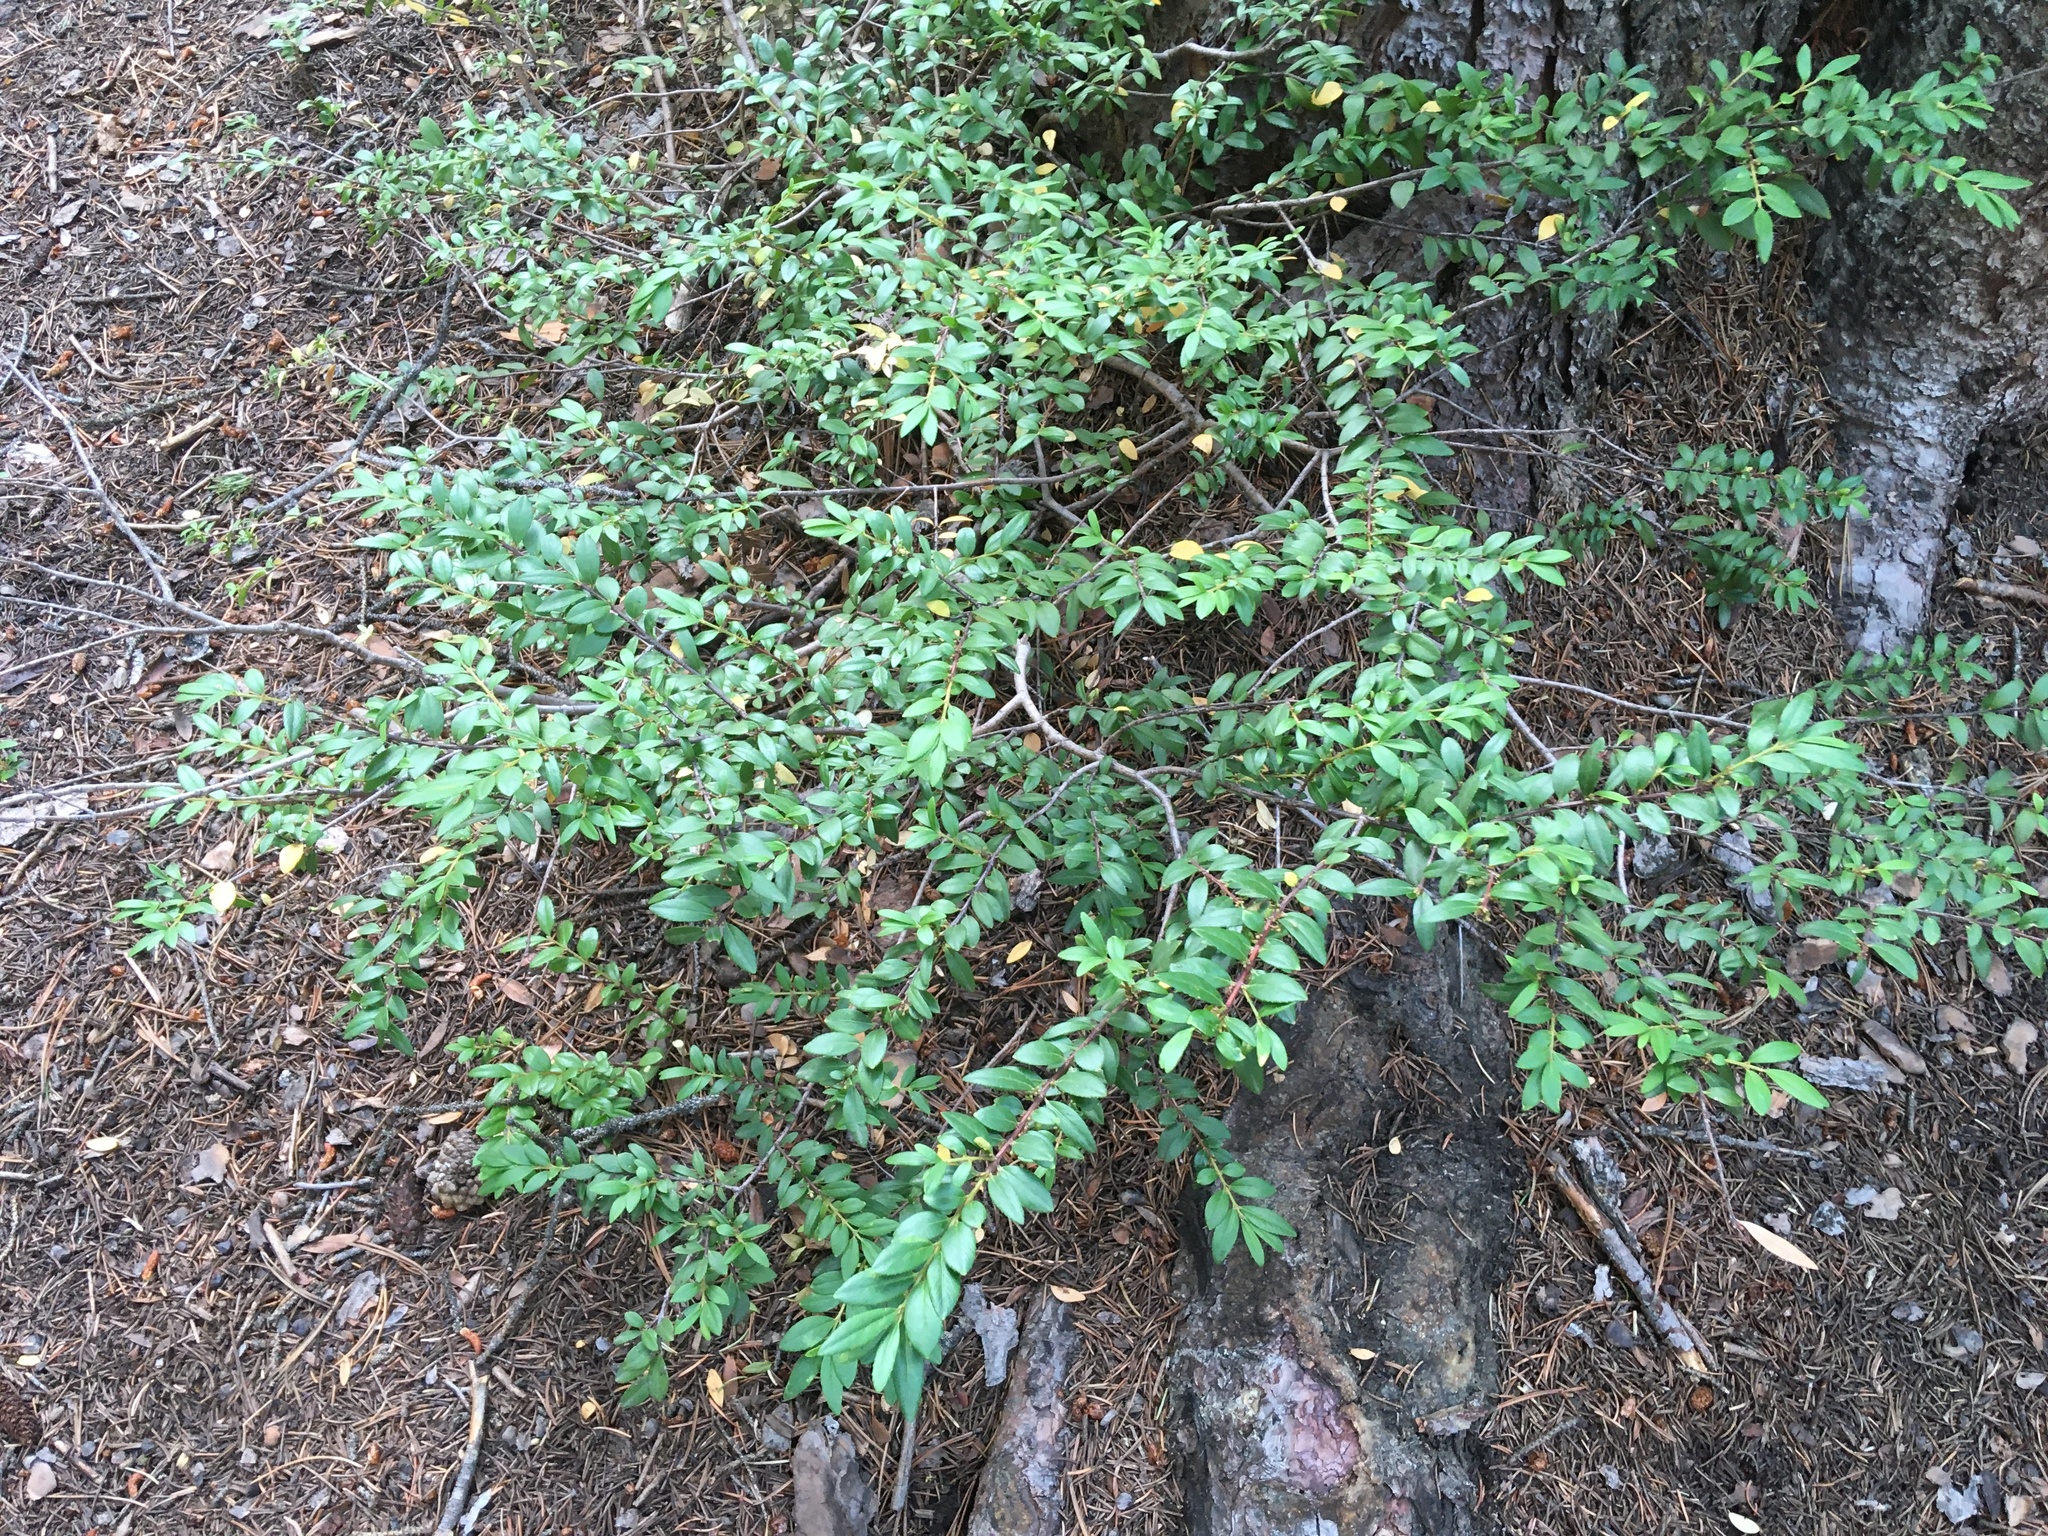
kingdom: Plantae
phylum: Tracheophyta
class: Magnoliopsida
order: Celastrales
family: Celastraceae
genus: Paxistima
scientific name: Paxistima myrsinites
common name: Mountain-lover
